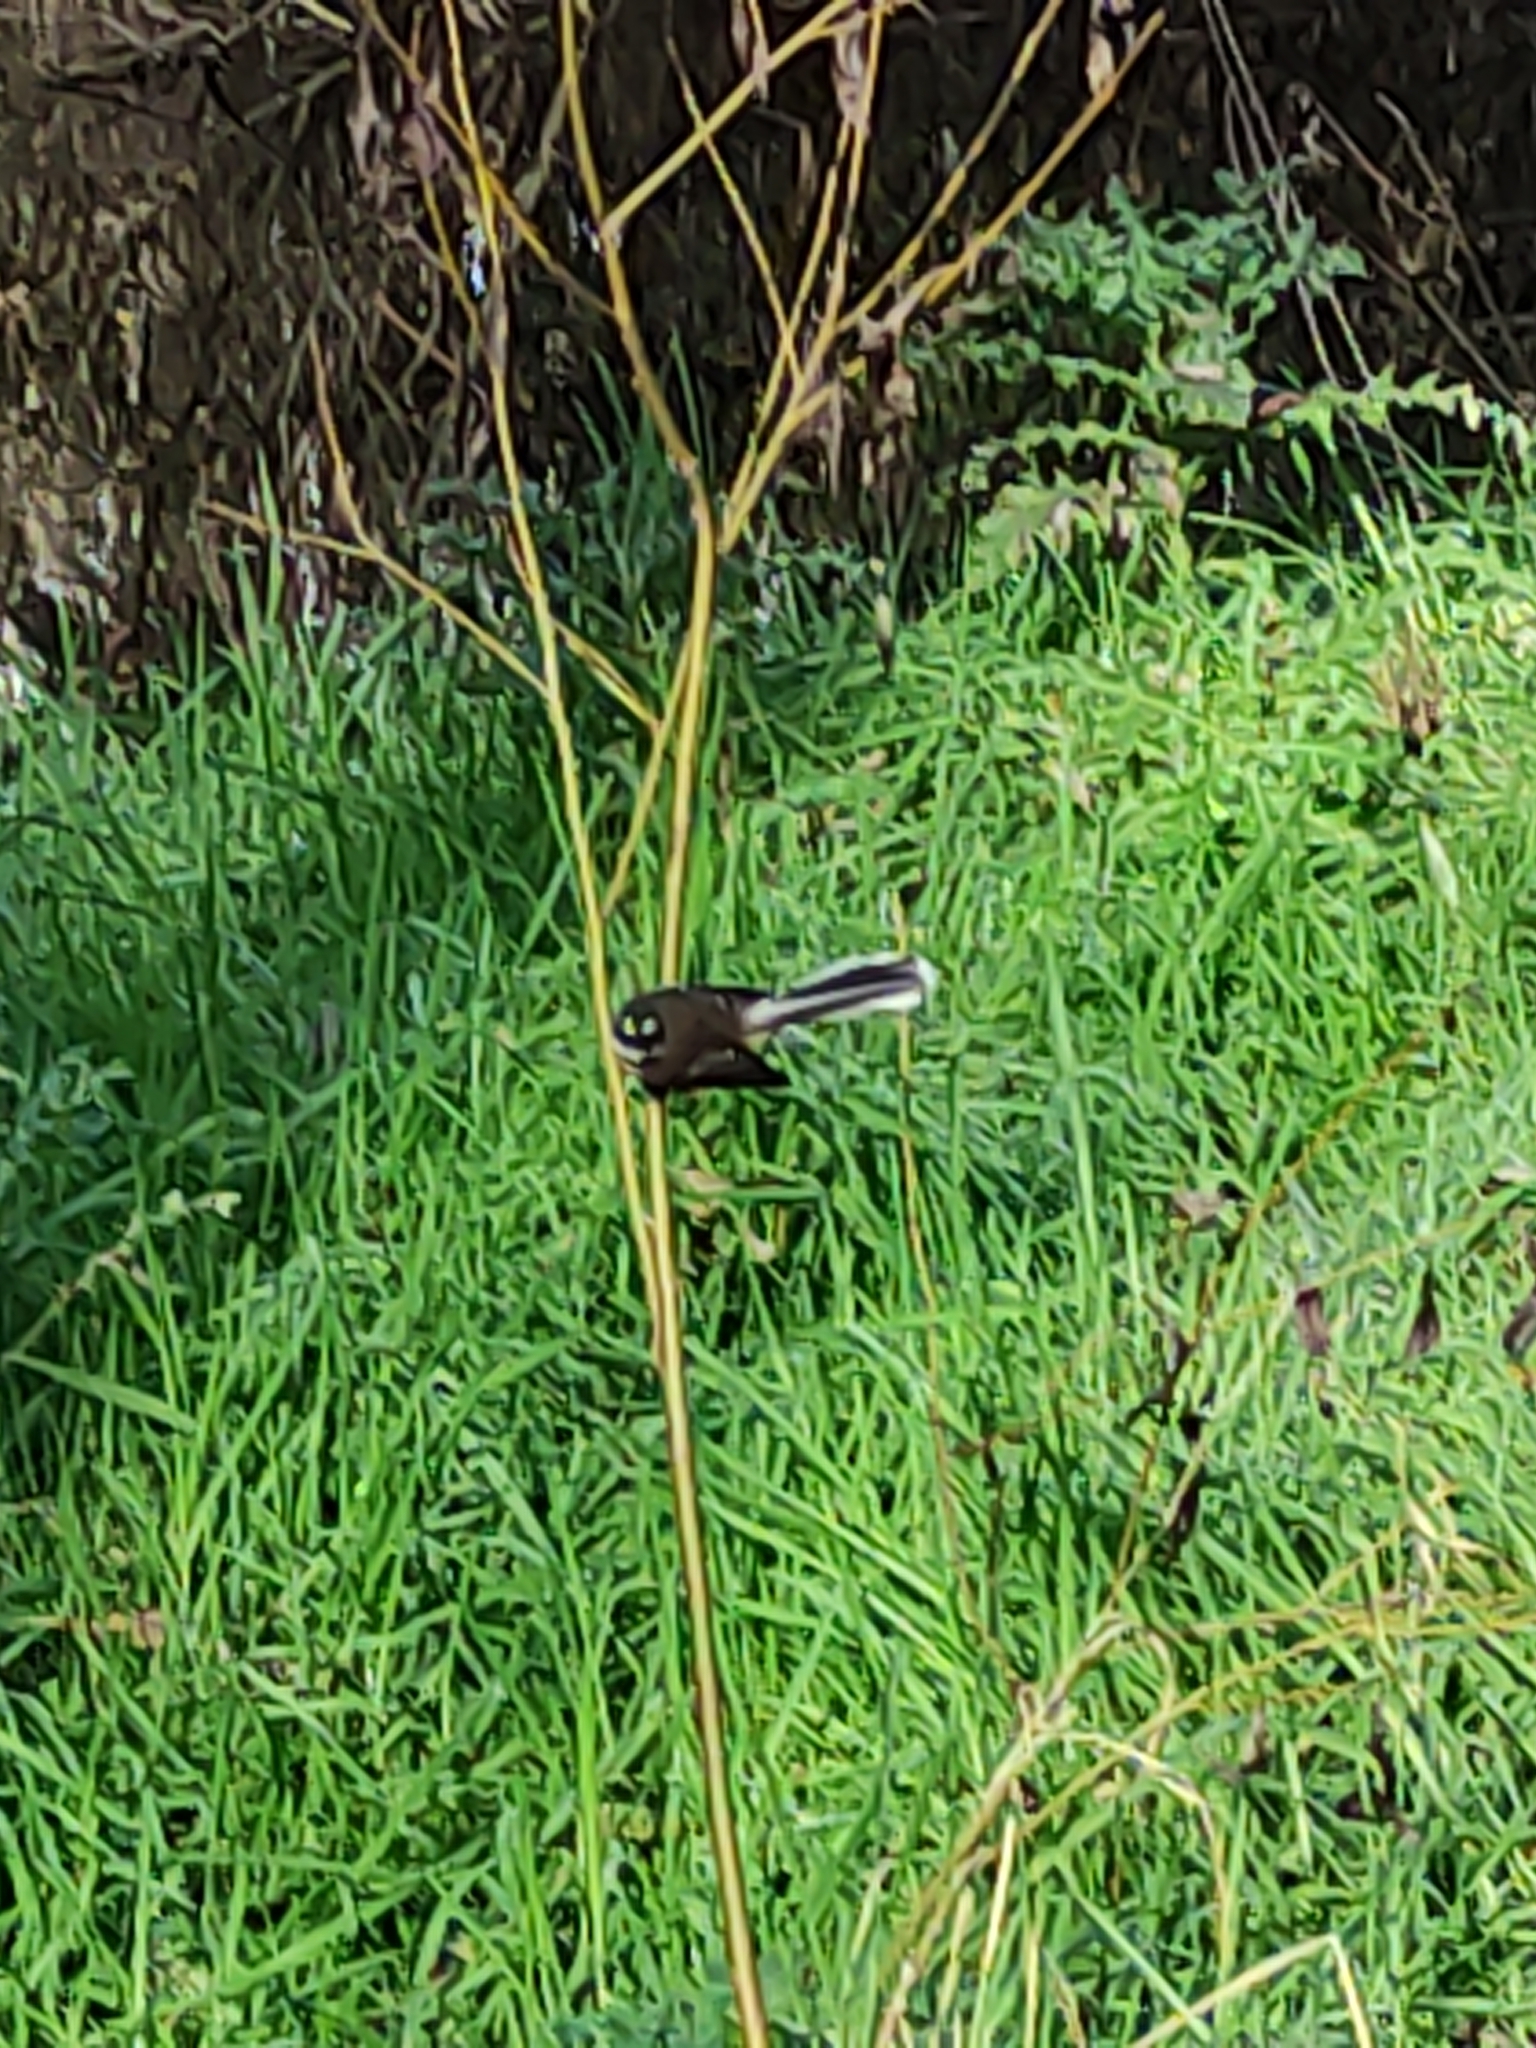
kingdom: Animalia
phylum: Chordata
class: Aves
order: Passeriformes
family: Rhipiduridae
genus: Rhipidura
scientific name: Rhipidura fuliginosa
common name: New zealand fantail
